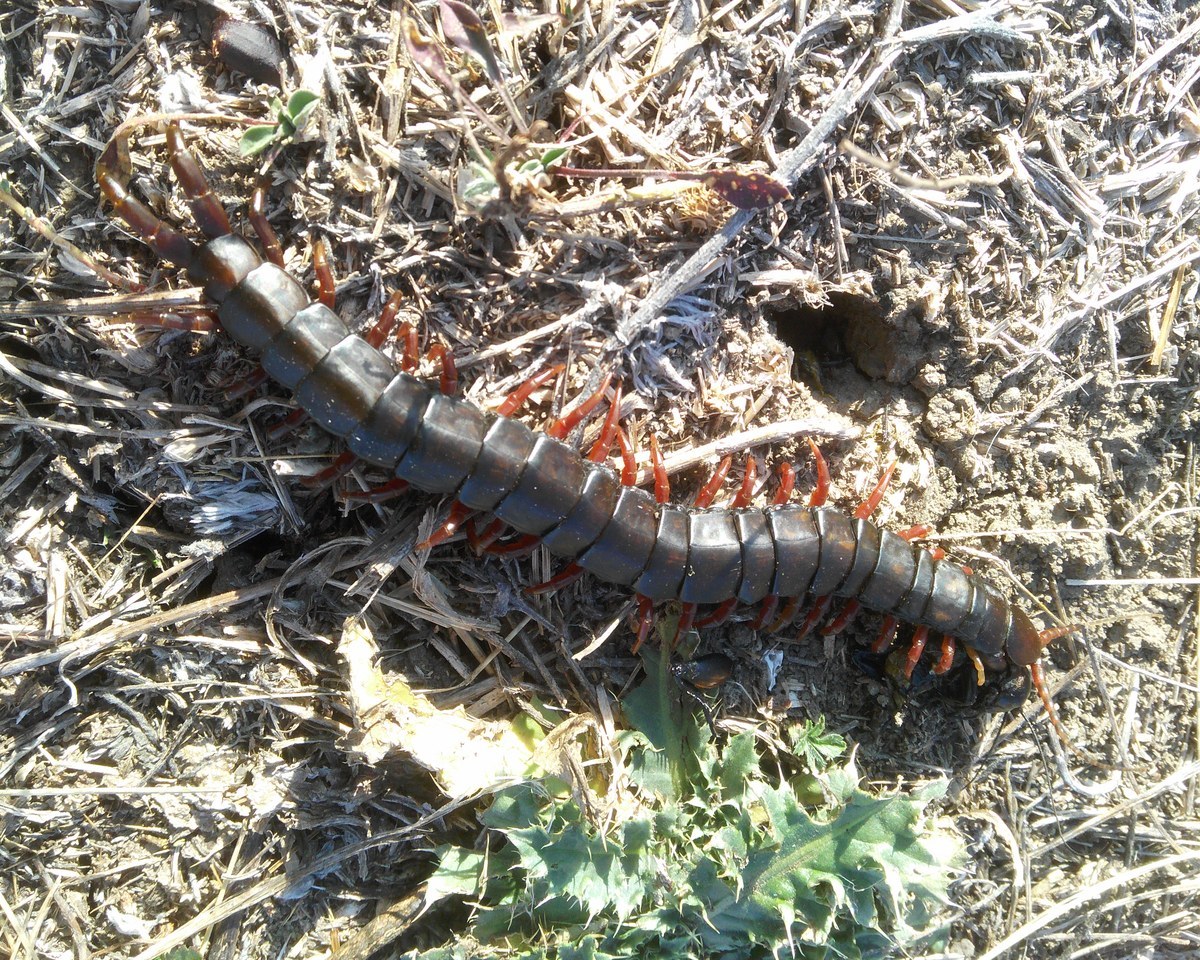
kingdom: Animalia
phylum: Arthropoda
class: Chilopoda
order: Scolopendromorpha
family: Scolopendridae
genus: Scolopendra
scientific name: Scolopendra cingulata
